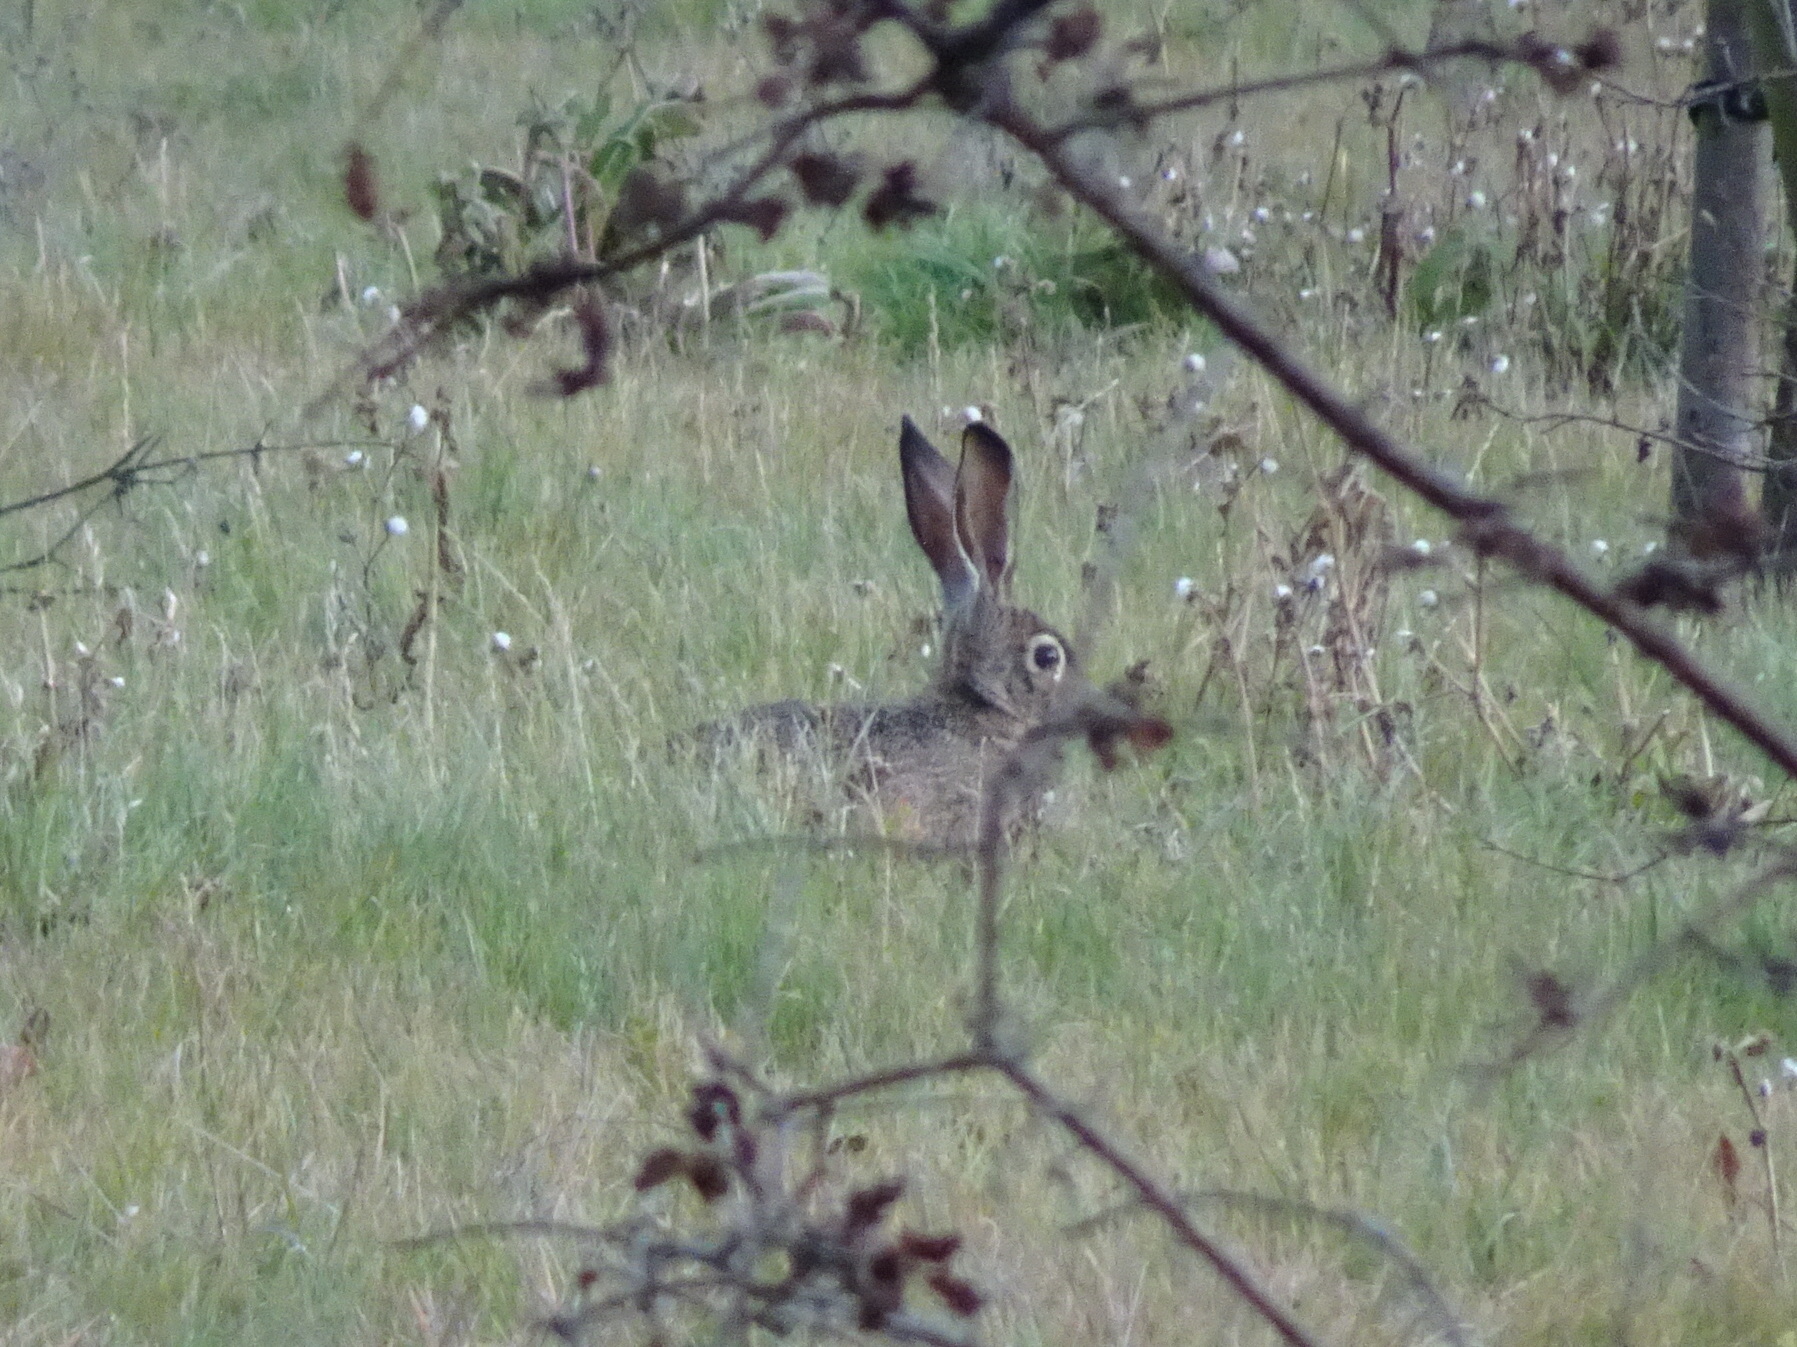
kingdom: Animalia
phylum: Chordata
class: Mammalia
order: Lagomorpha
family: Leporidae
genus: Lepus
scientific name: Lepus californicus
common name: Black-tailed jackrabbit
